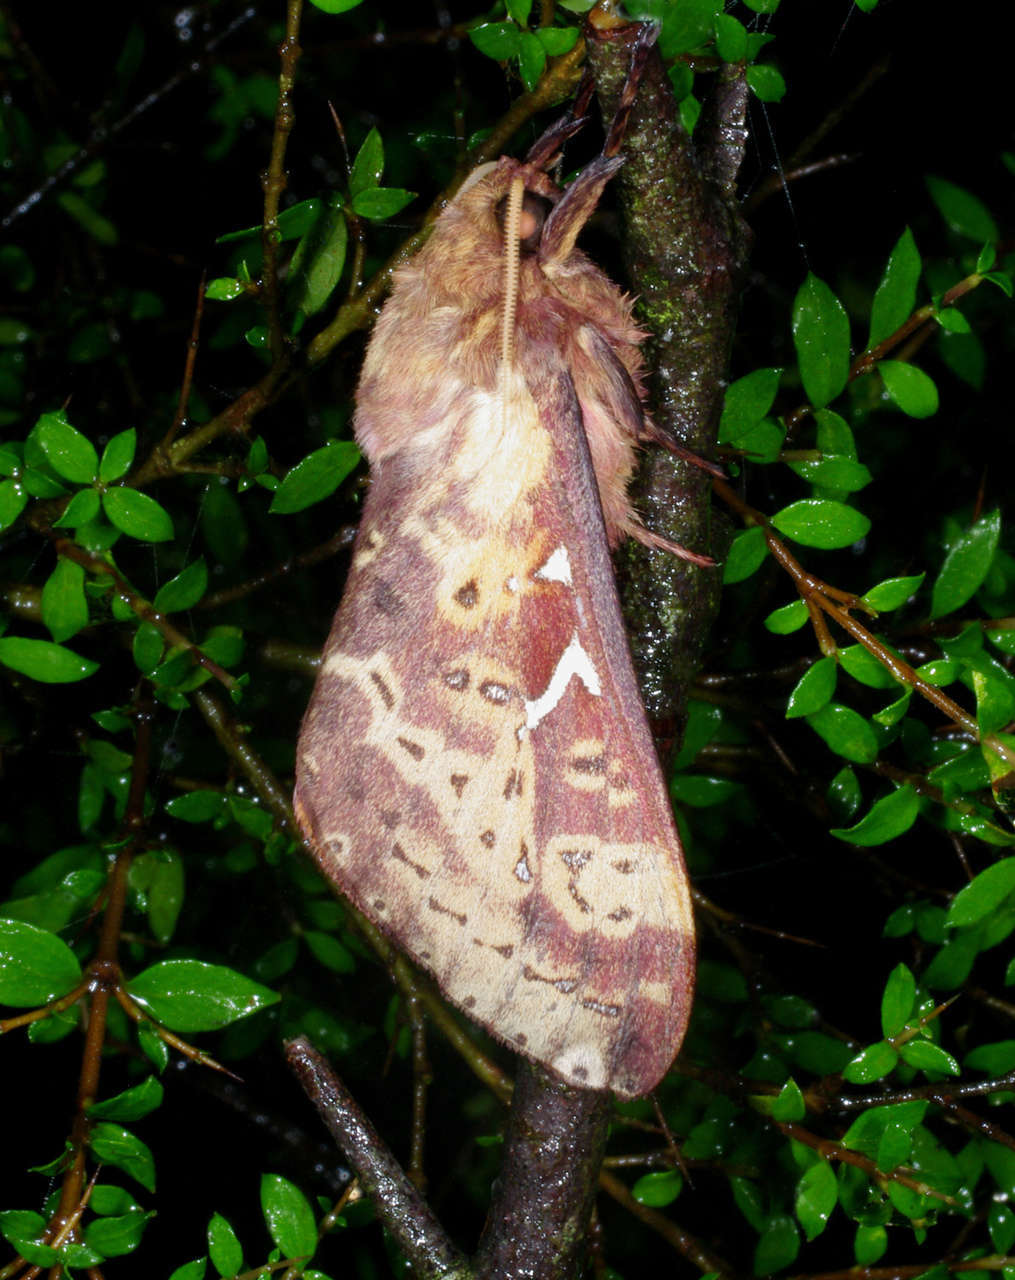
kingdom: Animalia
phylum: Arthropoda
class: Insecta
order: Lepidoptera
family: Hepialidae
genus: Oxycanus
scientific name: Oxycanus sirpus
